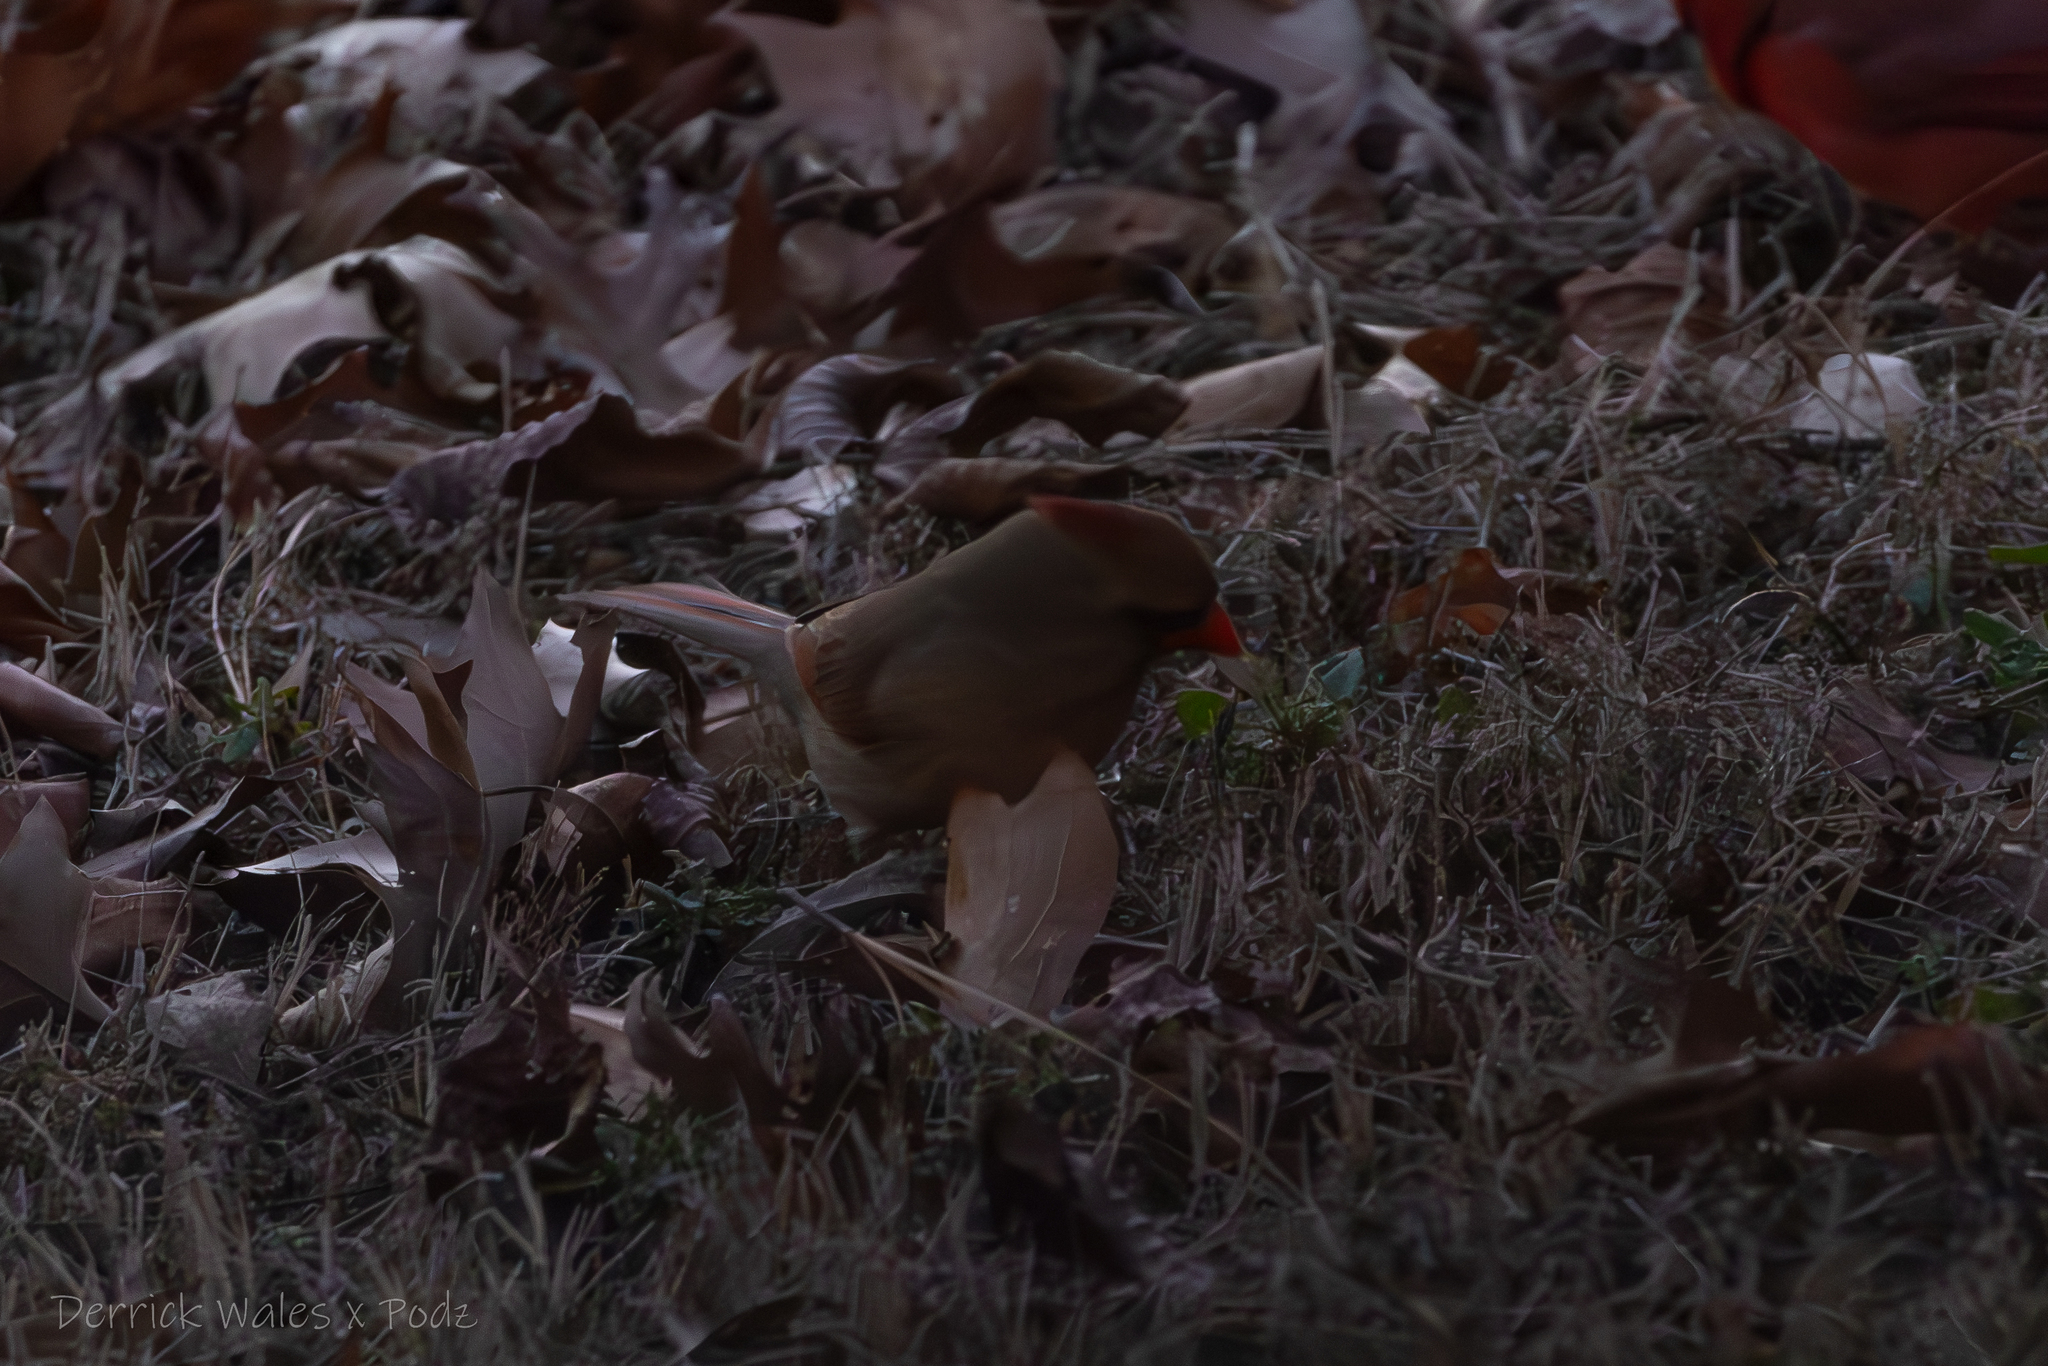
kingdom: Animalia
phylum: Chordata
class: Aves
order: Passeriformes
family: Cardinalidae
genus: Cardinalis
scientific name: Cardinalis cardinalis
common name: Northern cardinal
